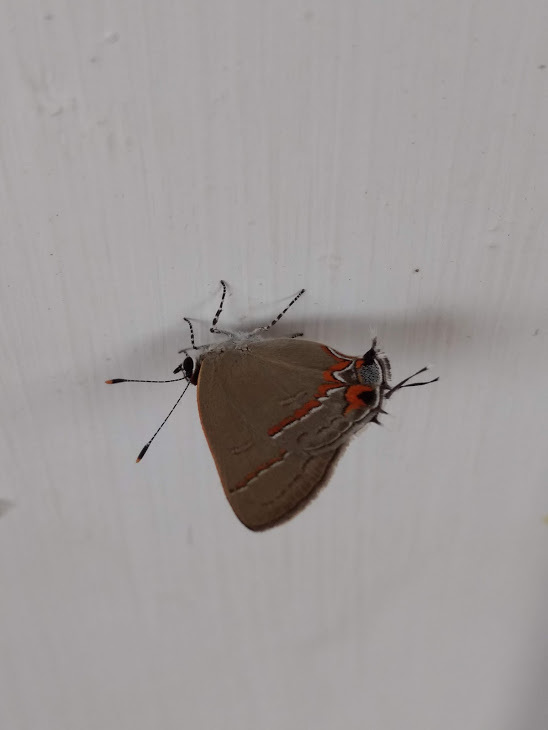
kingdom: Animalia
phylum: Arthropoda
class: Insecta
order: Lepidoptera
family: Lycaenidae
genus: Electrostrymon
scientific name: Electrostrymon endymion
